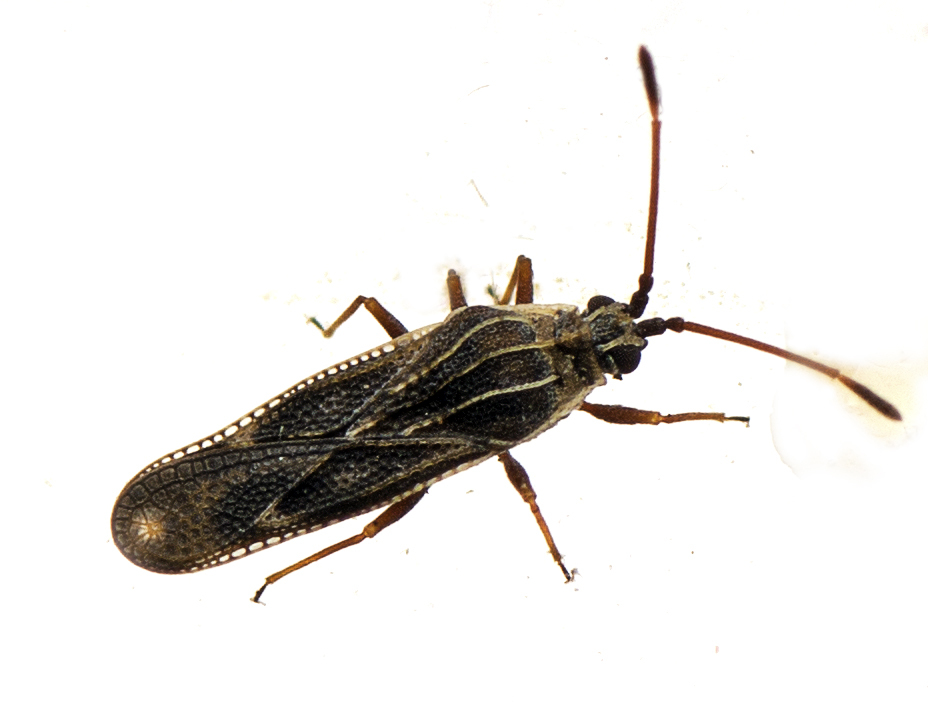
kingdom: Animalia
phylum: Arthropoda
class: Insecta
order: Hemiptera
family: Tingidae
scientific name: Tingidae
